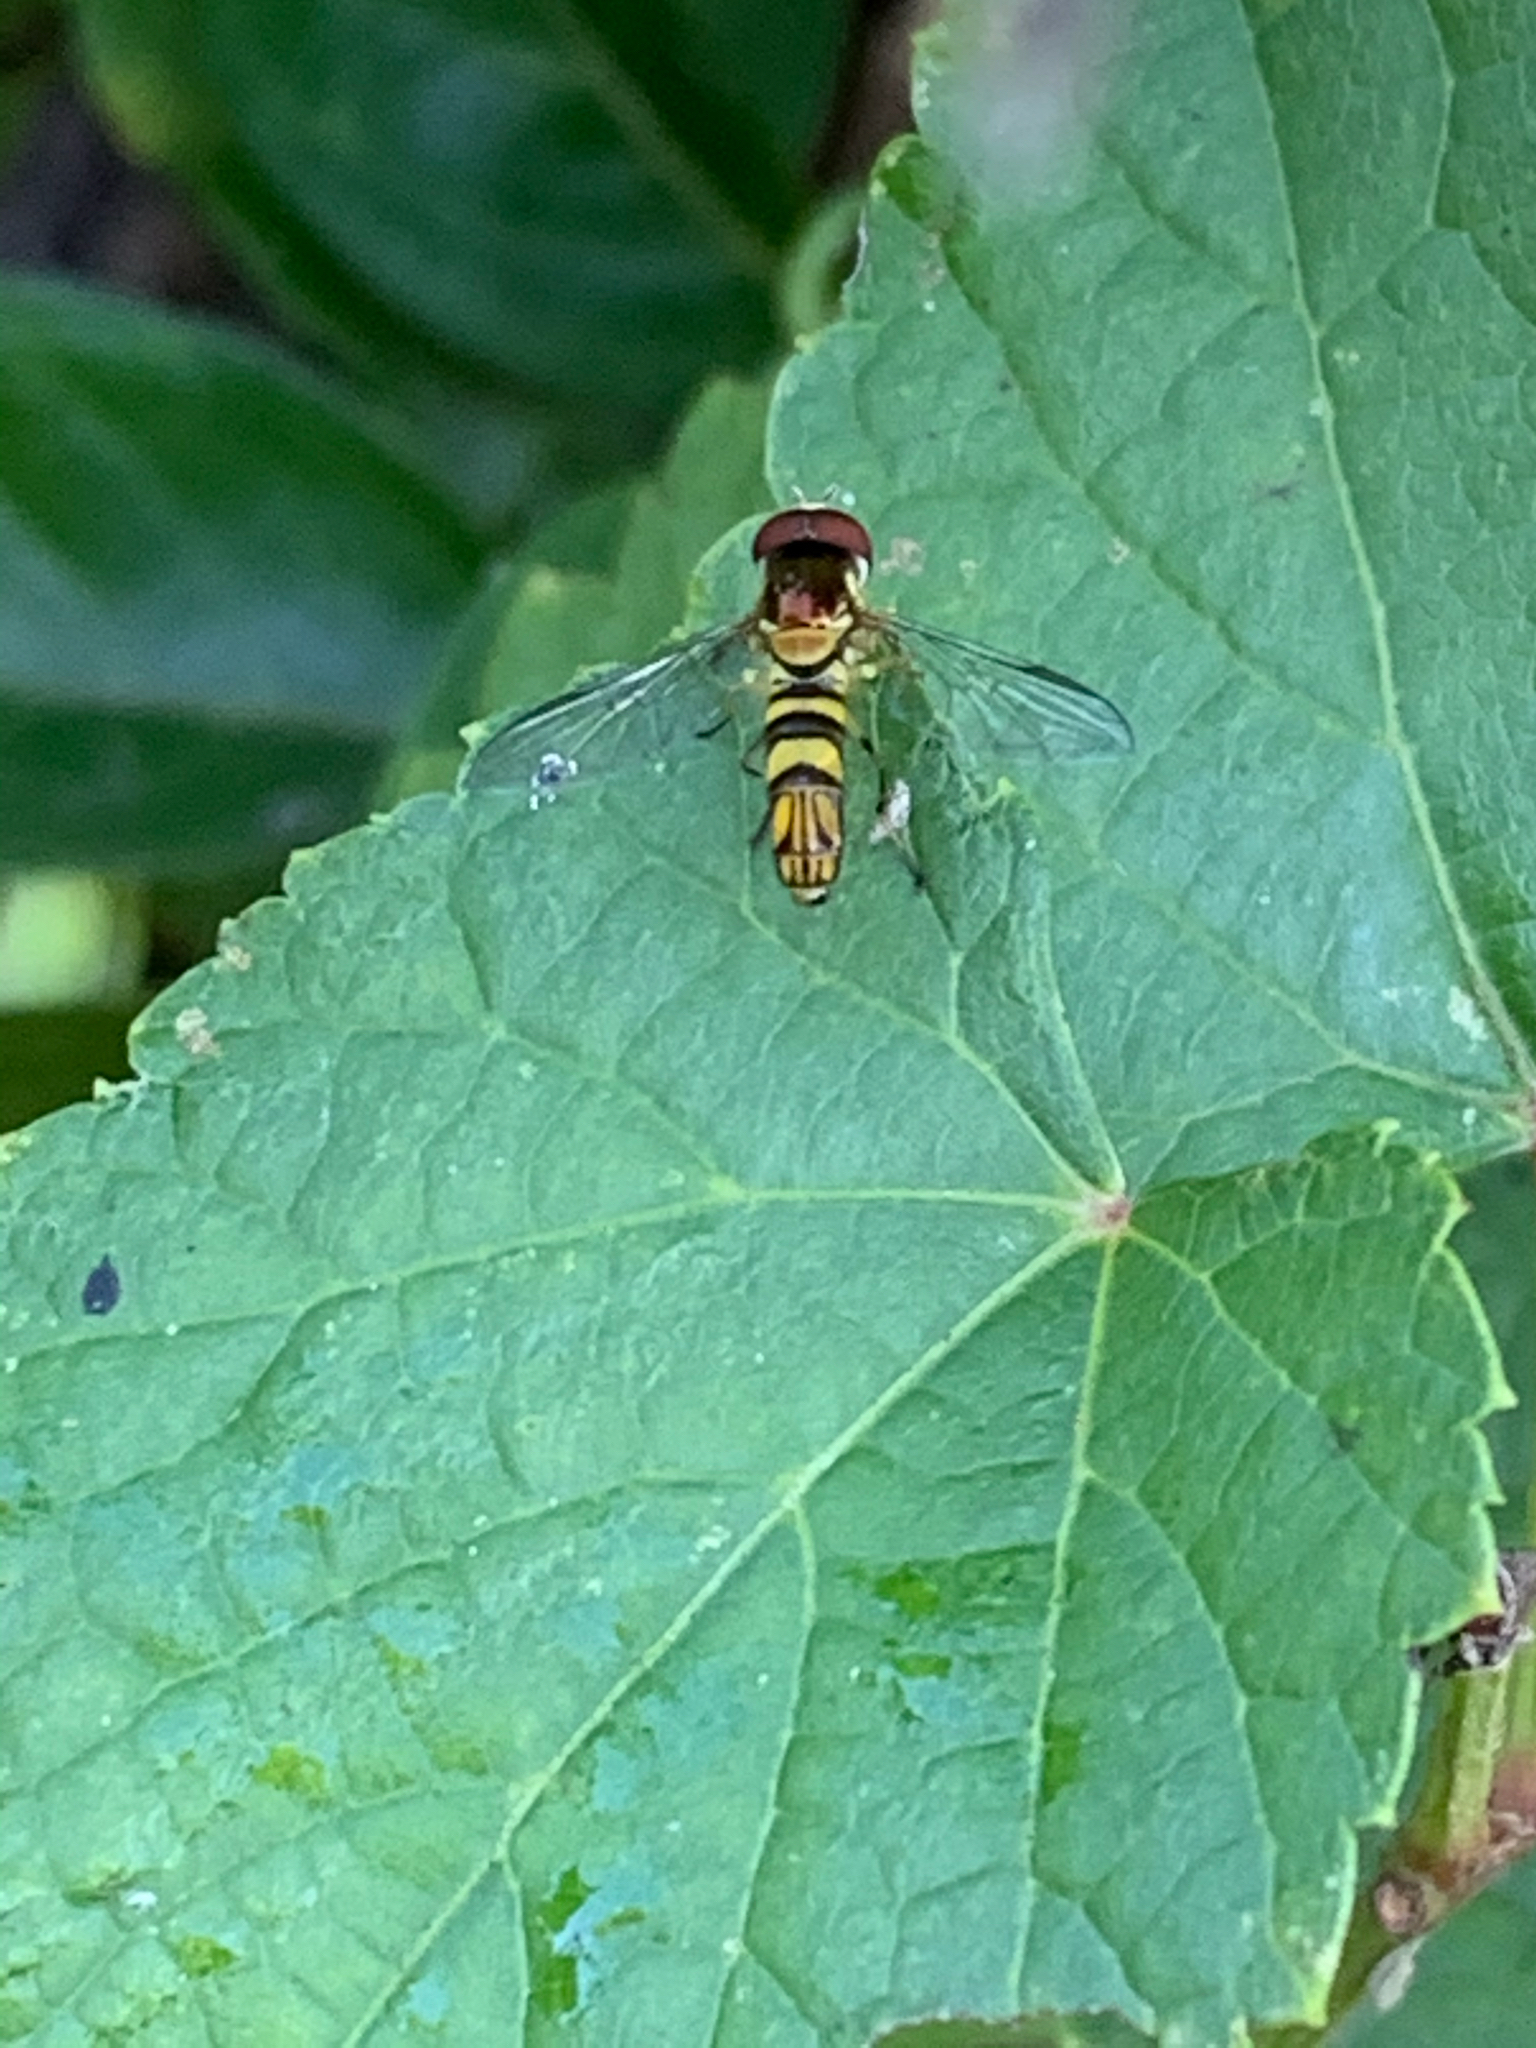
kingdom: Animalia
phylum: Arthropoda
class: Insecta
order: Diptera
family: Syrphidae
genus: Allograpta
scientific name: Allograpta obliqua
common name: Common oblique syrphid
